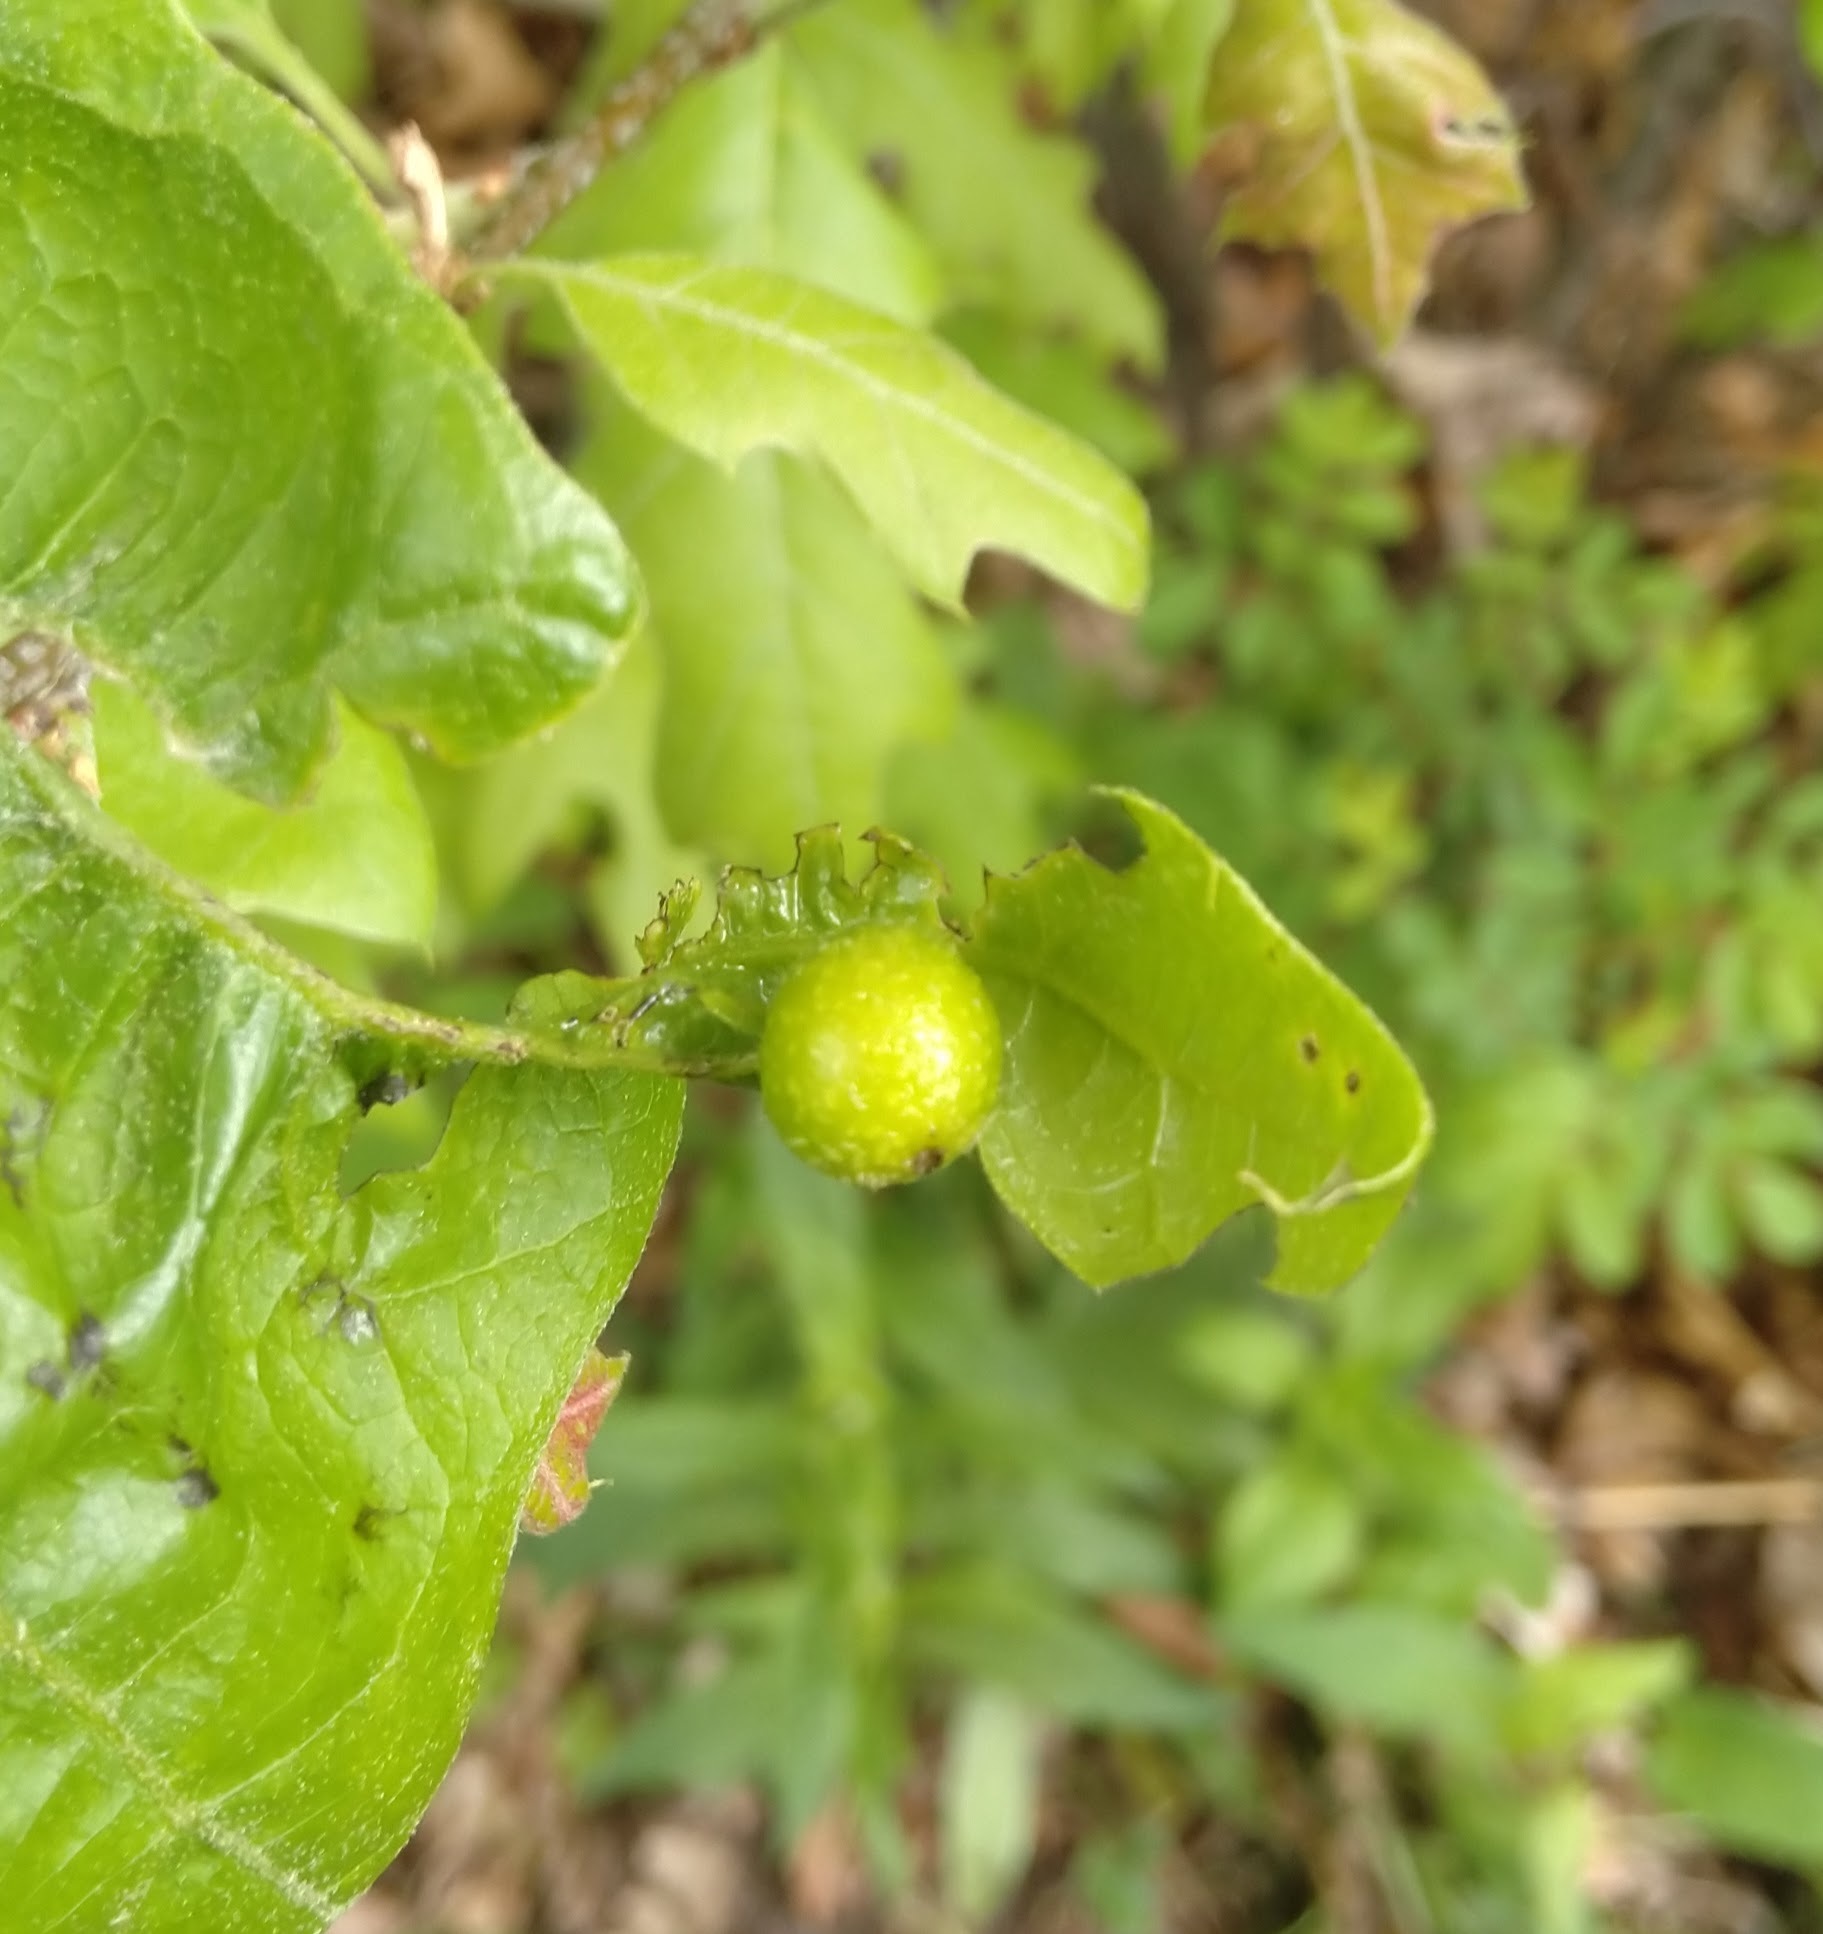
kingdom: Animalia
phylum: Arthropoda
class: Insecta
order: Hymenoptera
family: Cynipidae
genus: Dryocosmus
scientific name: Dryocosmus quercuspalustris
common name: Succulent oak gall wasp
